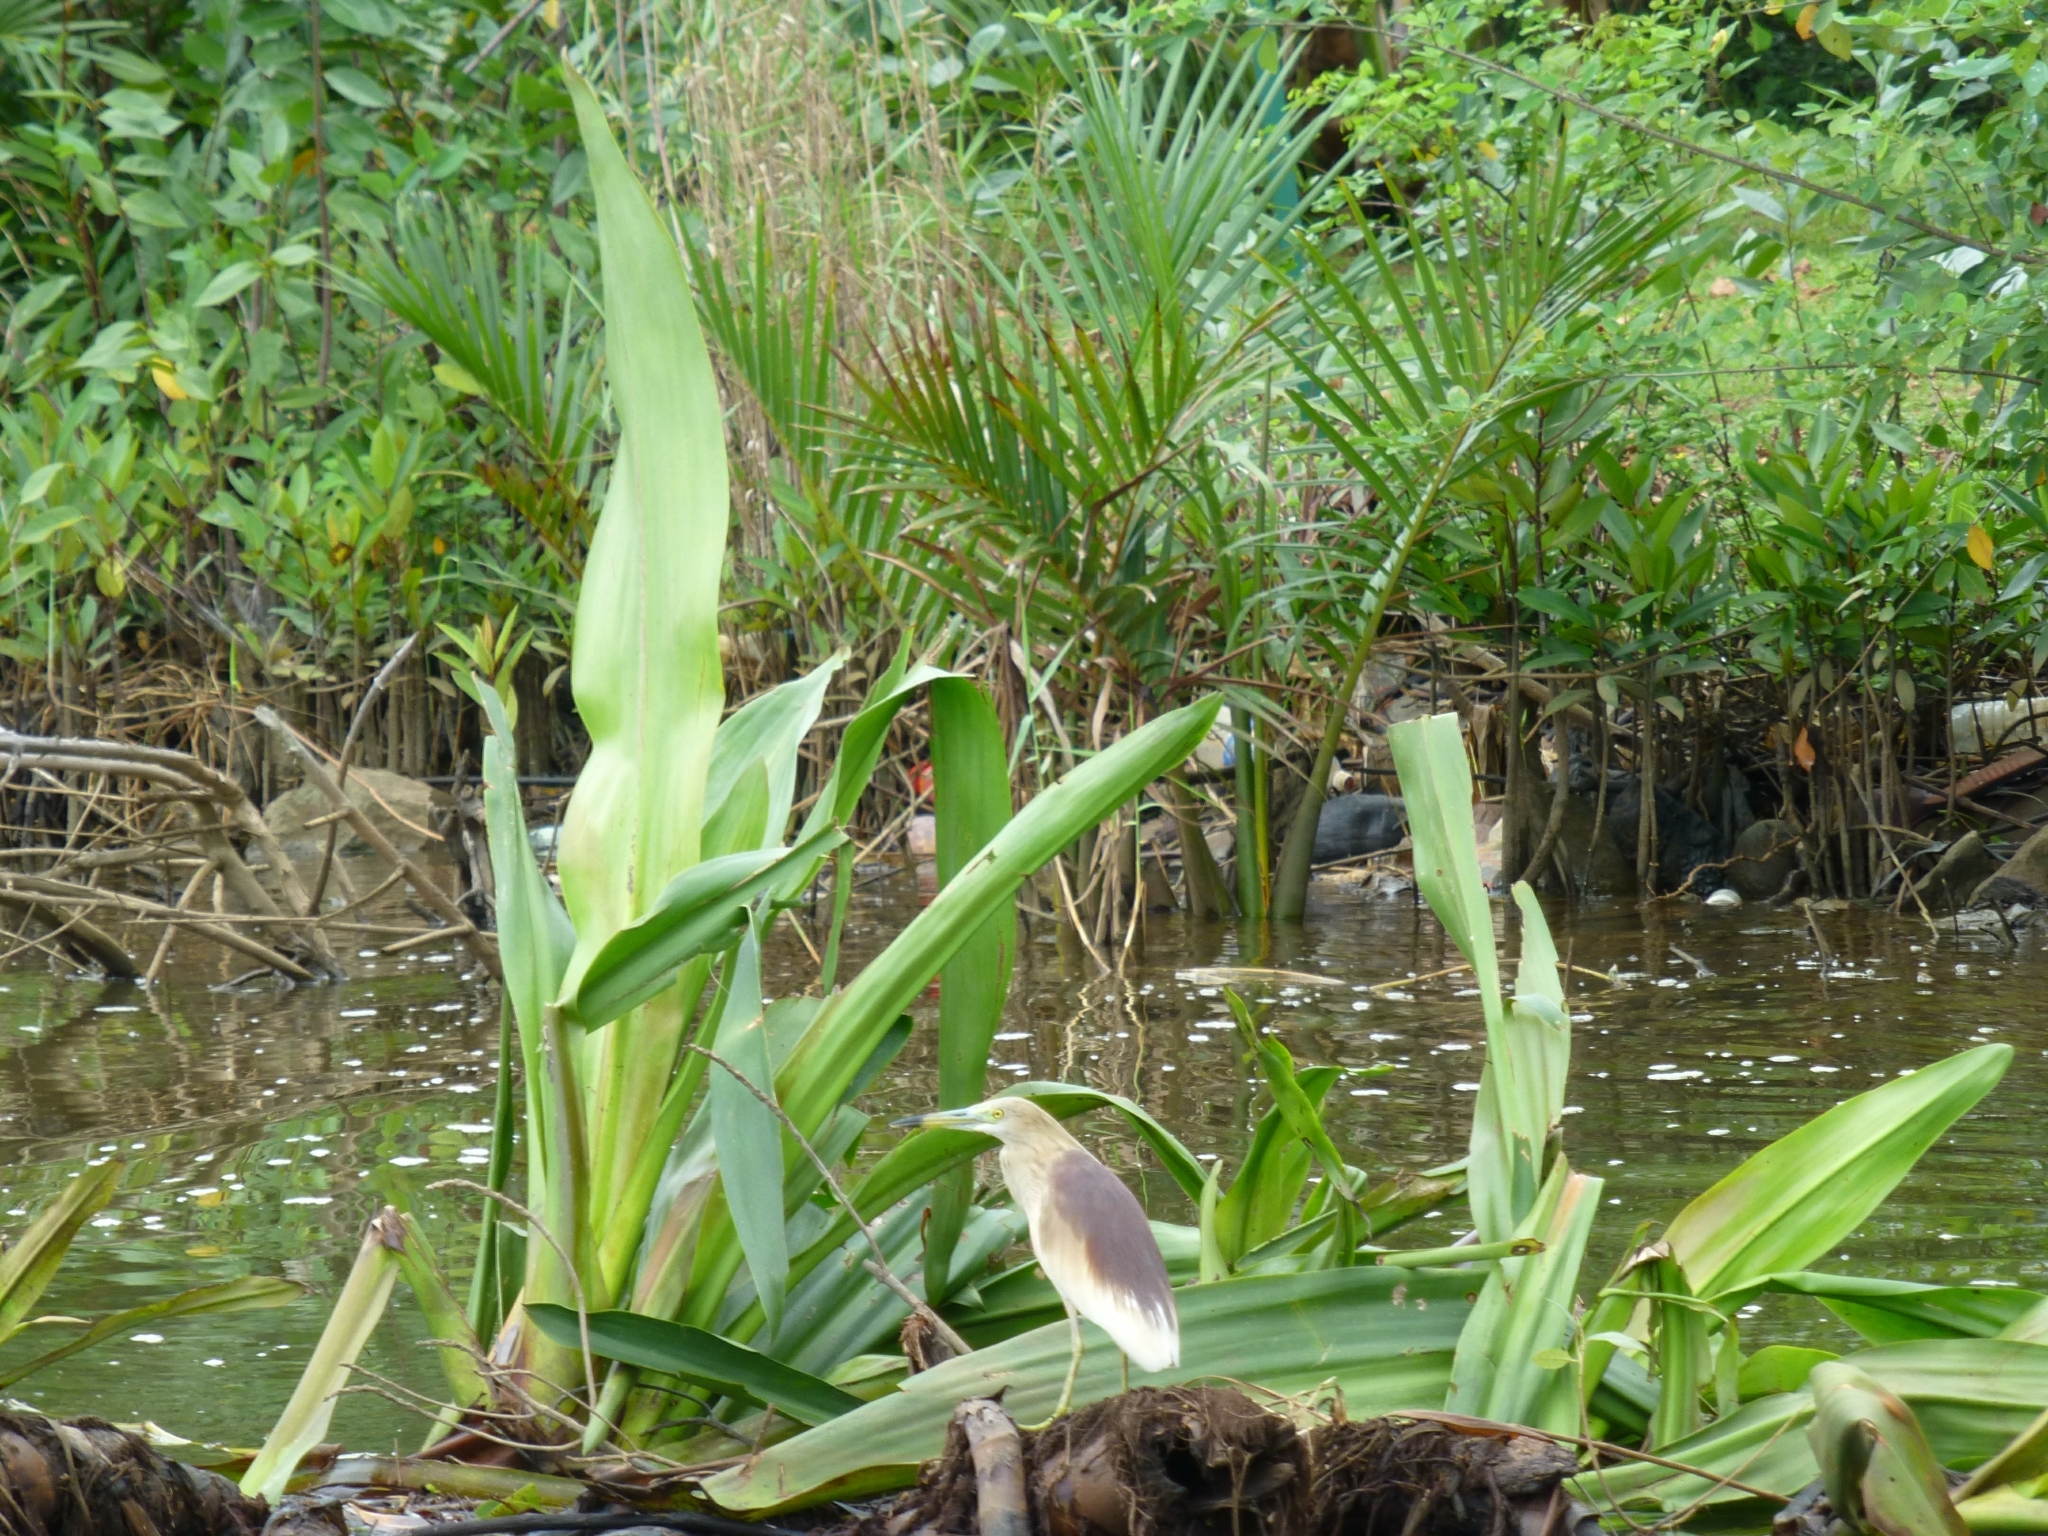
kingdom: Animalia
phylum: Chordata
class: Aves
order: Pelecaniformes
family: Ardeidae
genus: Ardeola
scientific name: Ardeola grayii
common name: Indian pond heron
